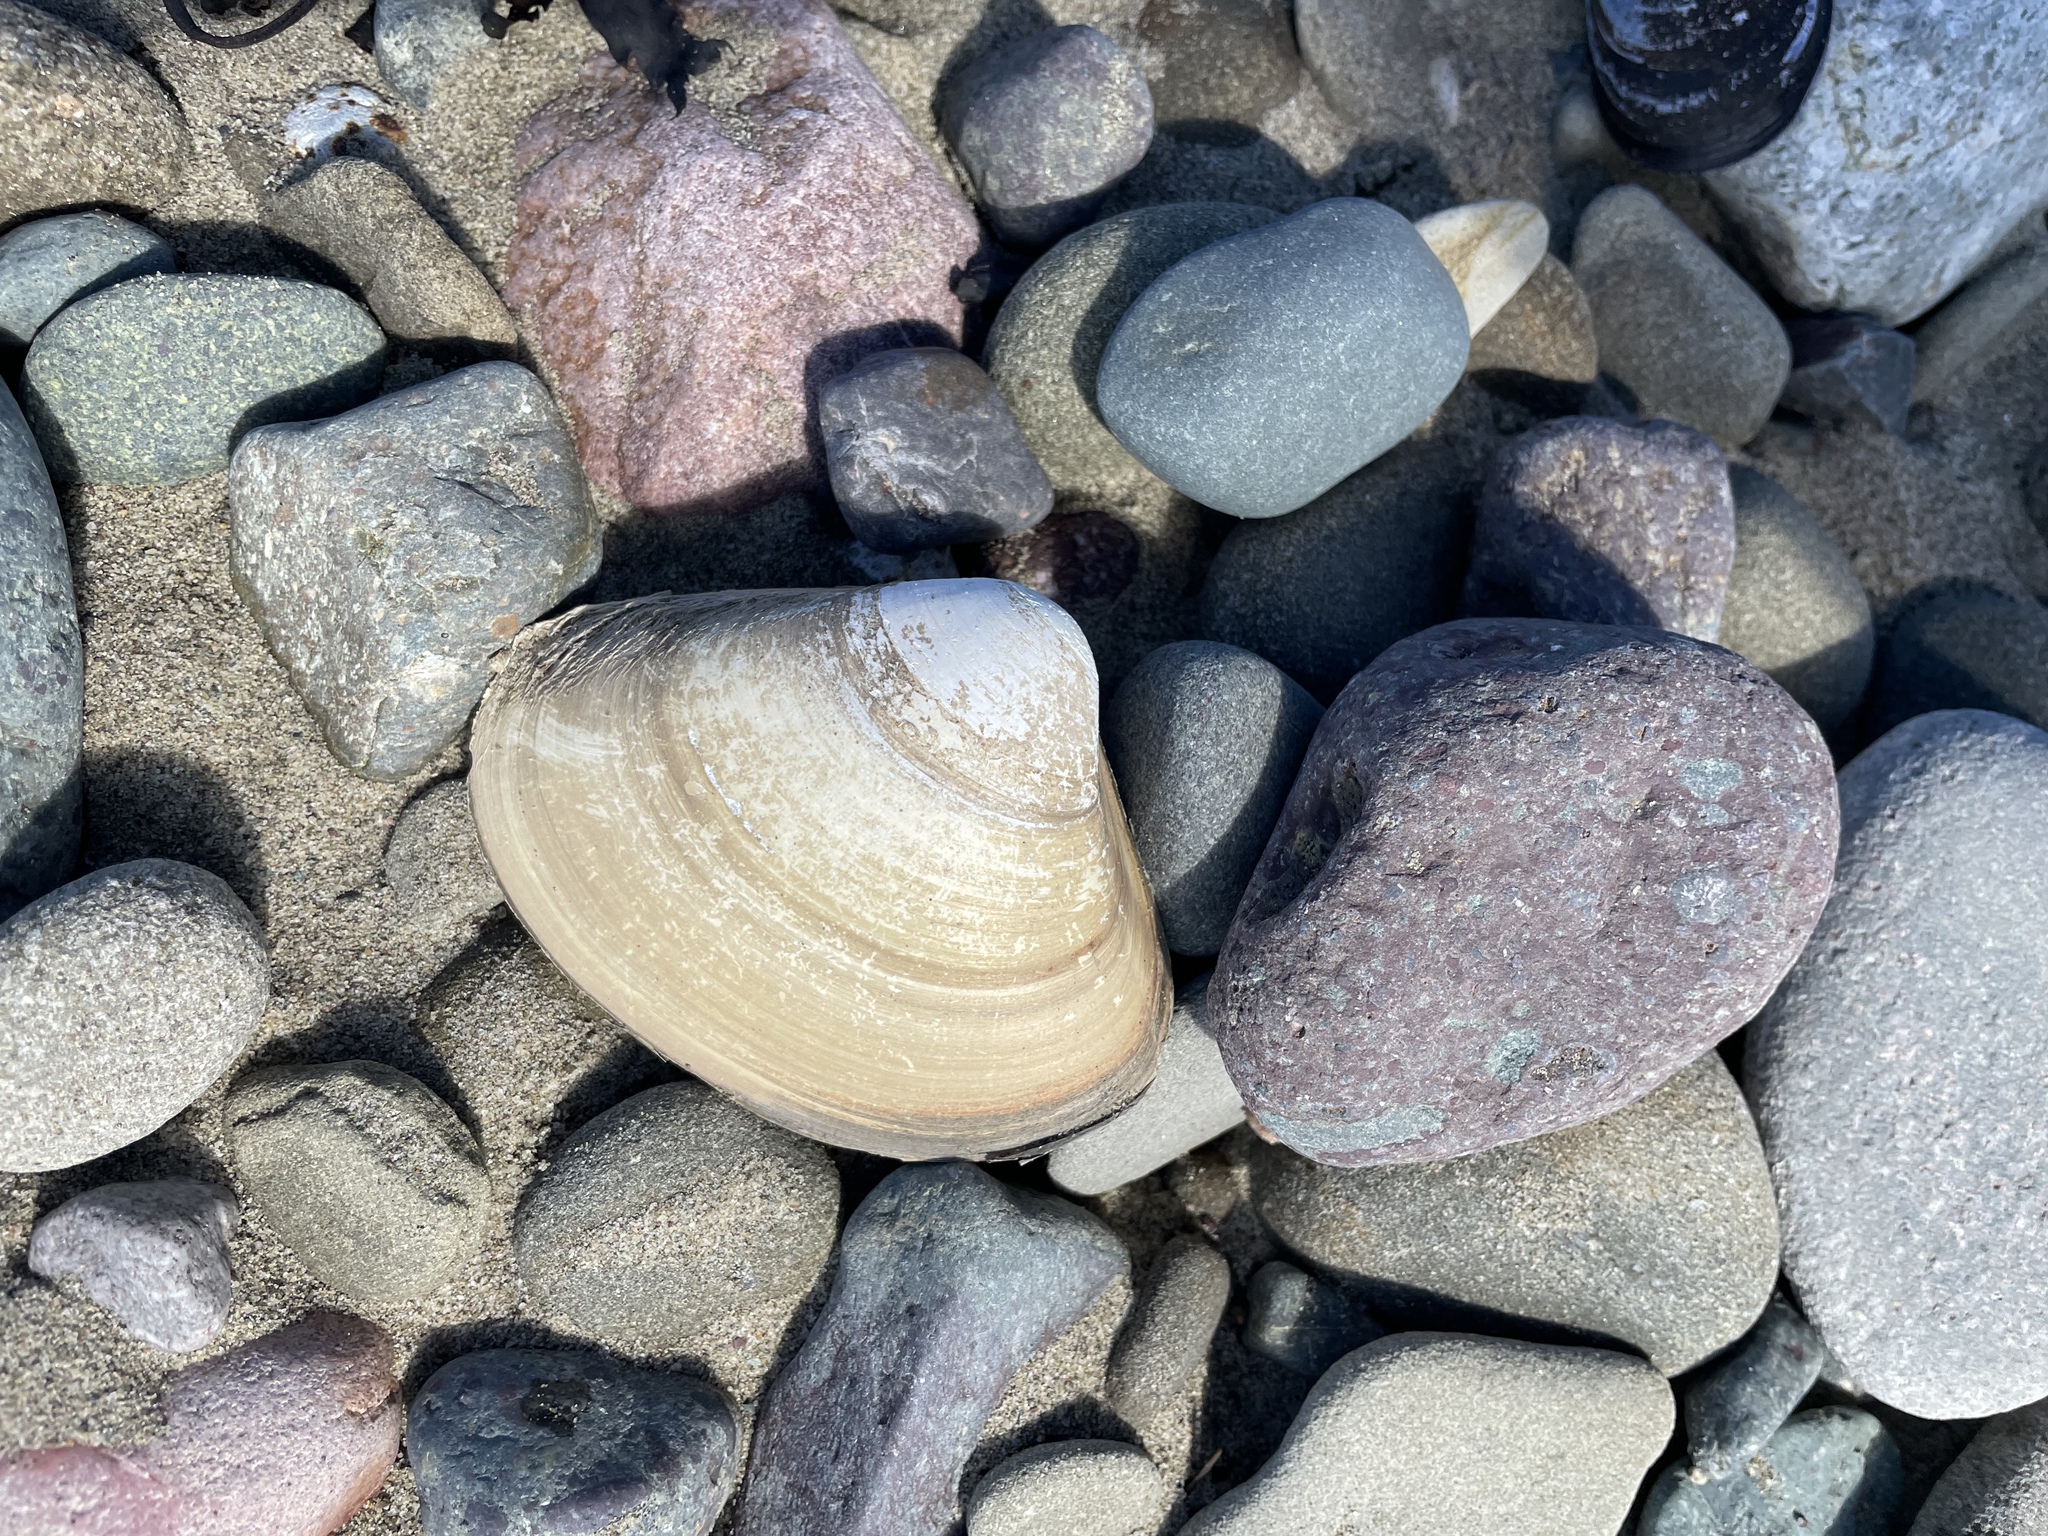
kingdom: Animalia
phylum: Mollusca
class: Bivalvia
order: Venerida
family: Mactridae
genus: Spisula
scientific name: Spisula solidissima
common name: Atlantic surf clam
